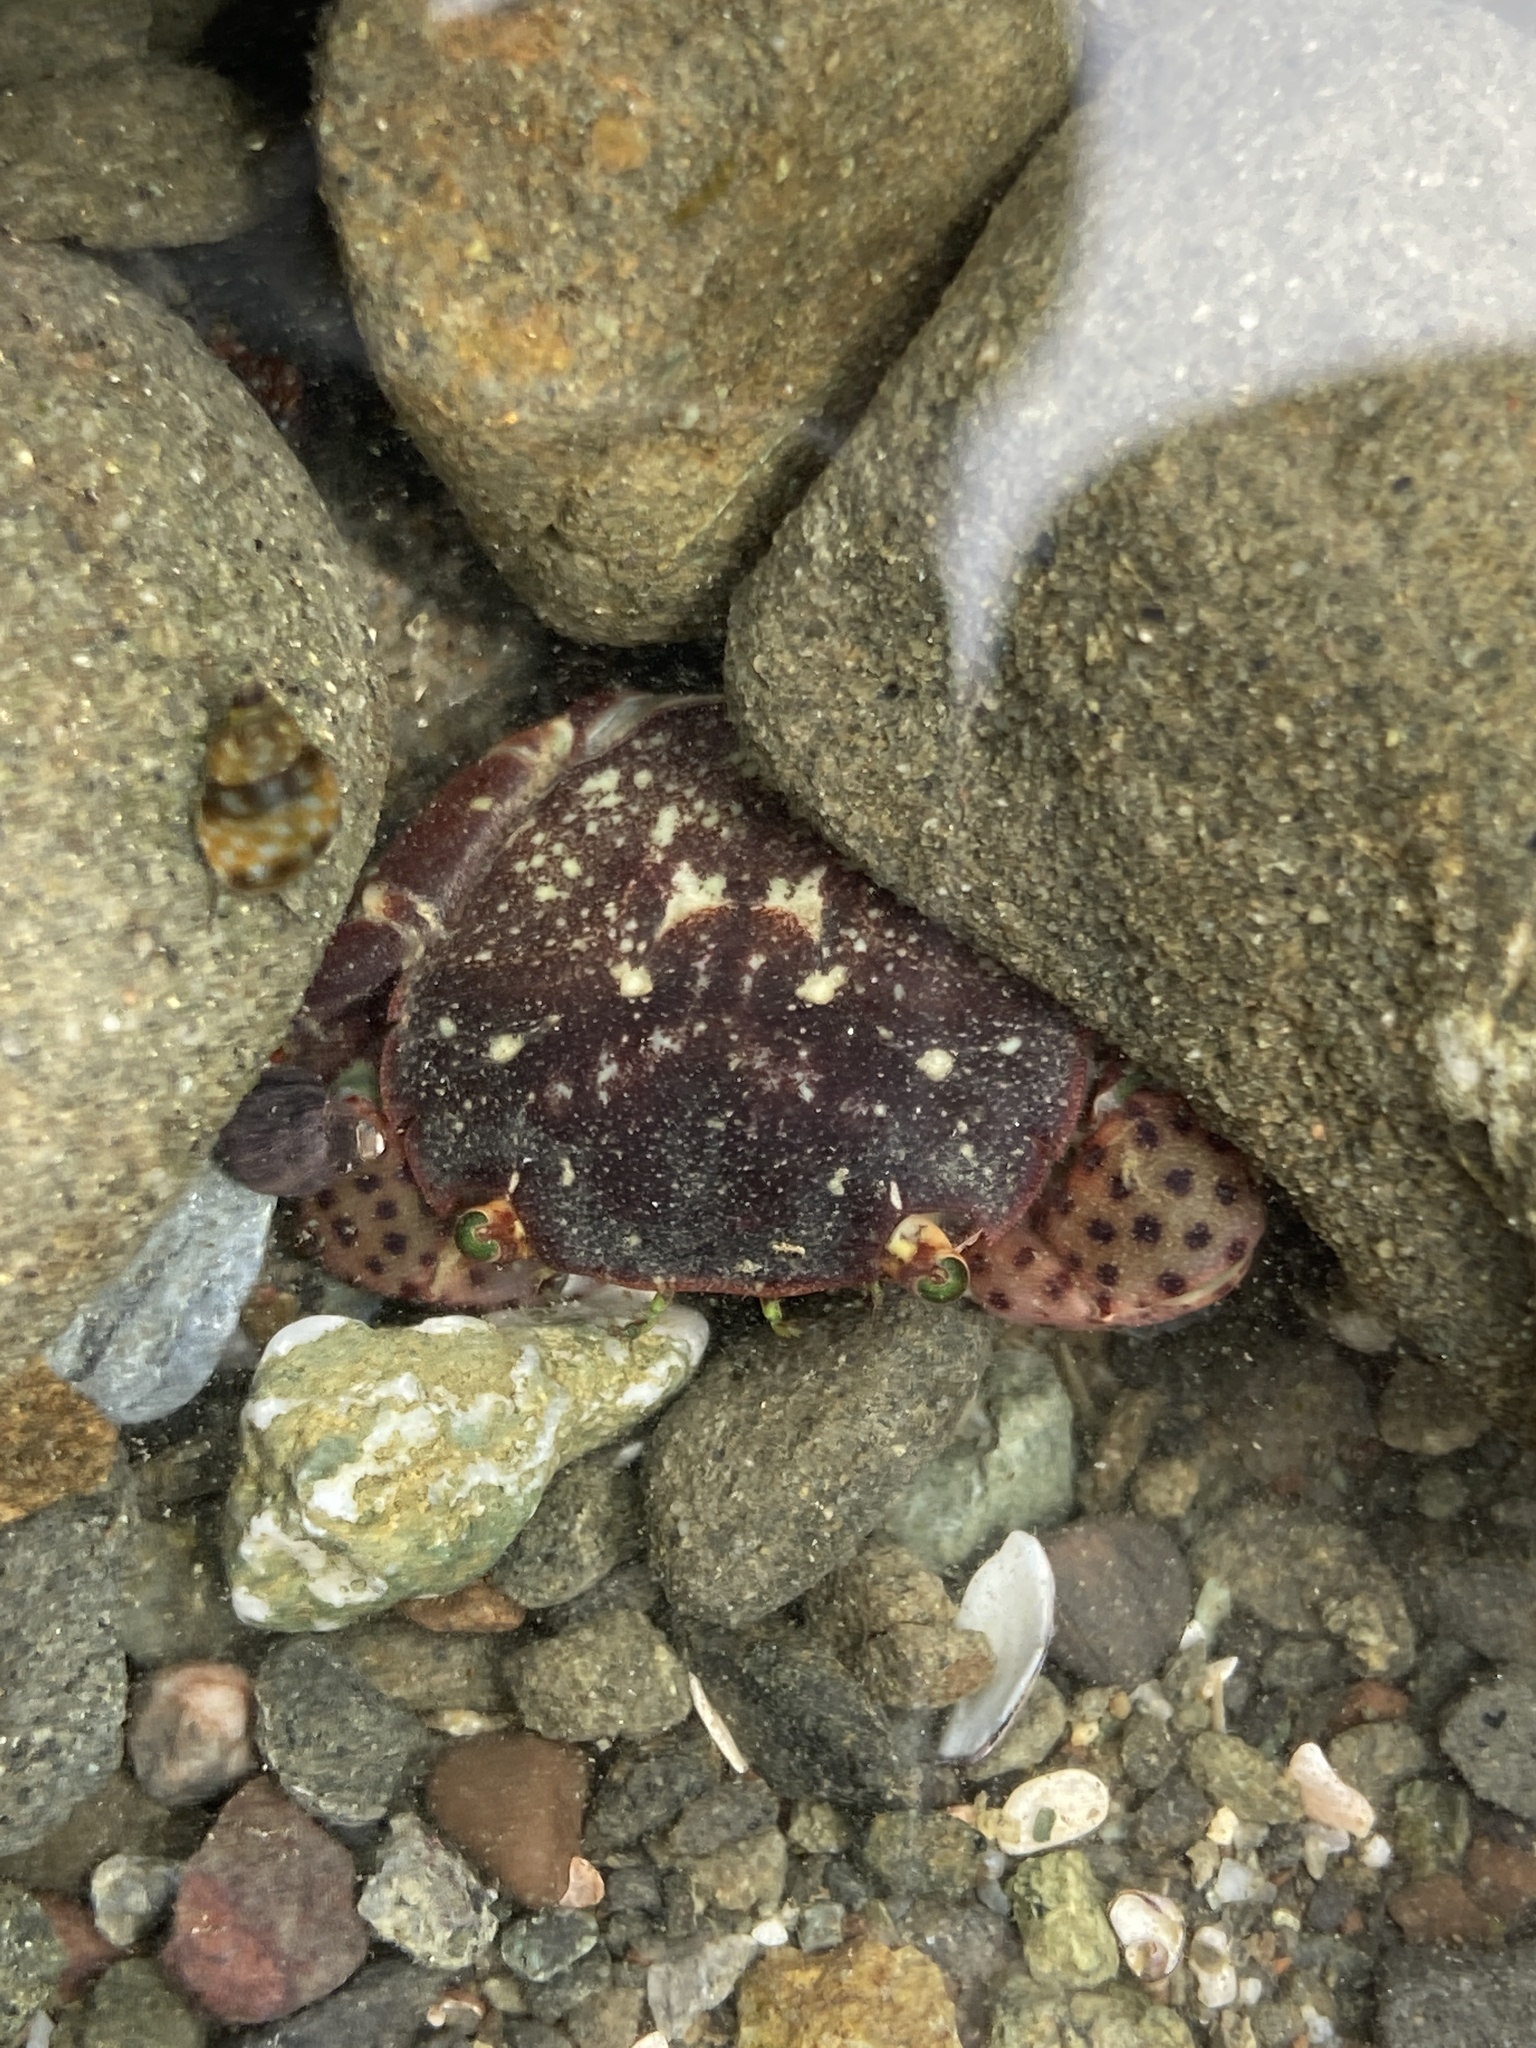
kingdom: Animalia
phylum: Arthropoda
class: Malacostraca
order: Decapoda
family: Varunidae
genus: Hemigrapsus
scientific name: Hemigrapsus nudus
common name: Purple shore crab
